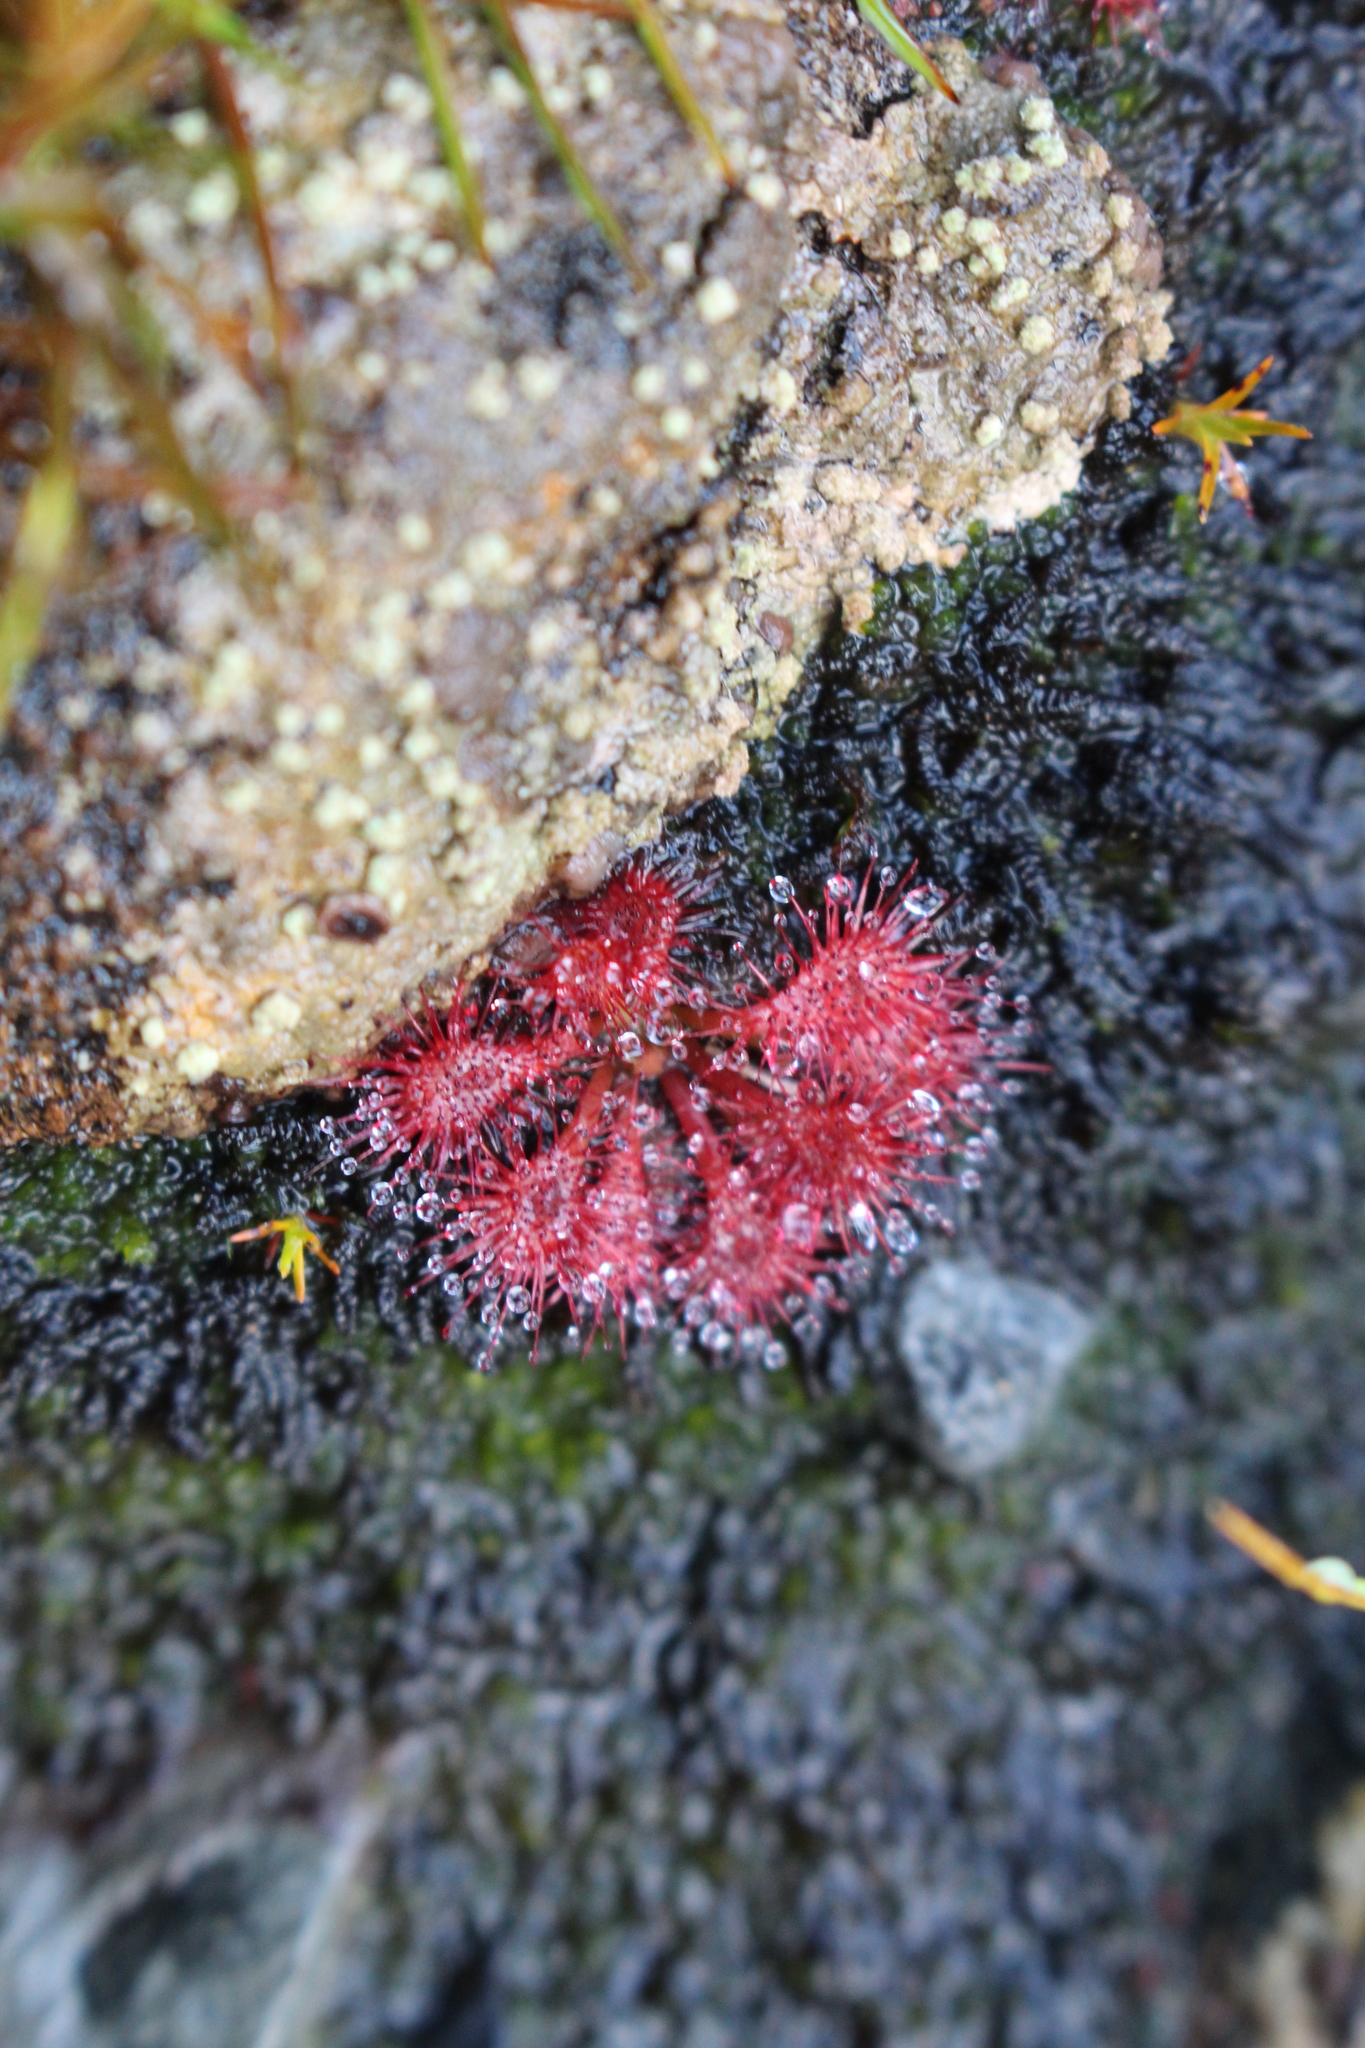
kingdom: Plantae
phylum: Tracheophyta
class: Magnoliopsida
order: Caryophyllales
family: Droseraceae
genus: Drosera
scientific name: Drosera spatulata
